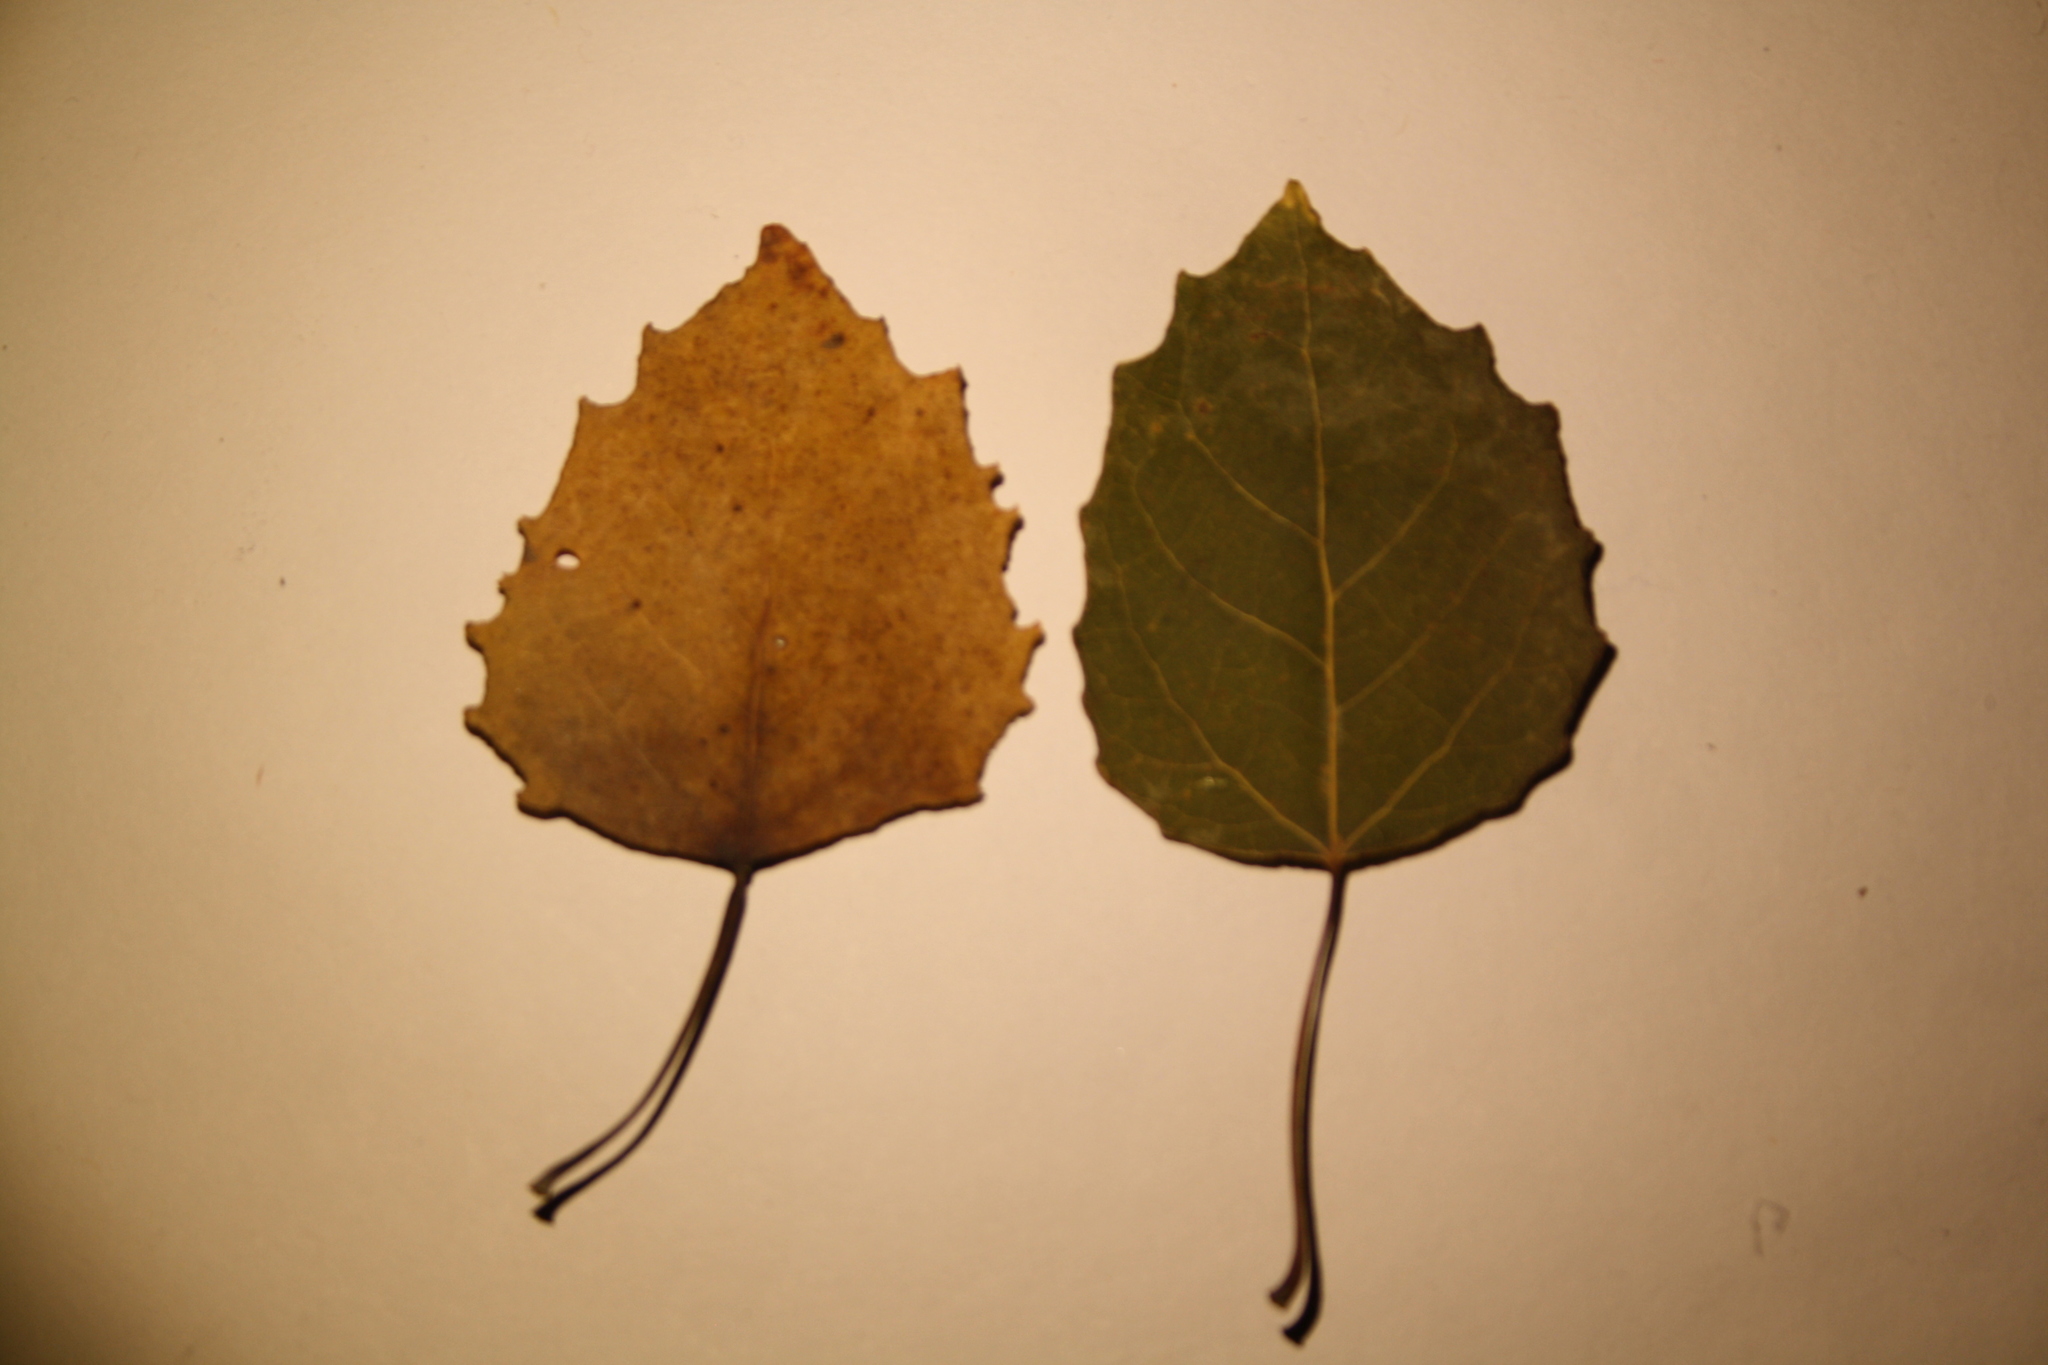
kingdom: Plantae
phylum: Tracheophyta
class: Magnoliopsida
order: Malpighiales
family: Salicaceae
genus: Populus
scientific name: Populus grandidentata
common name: Bigtooth aspen
